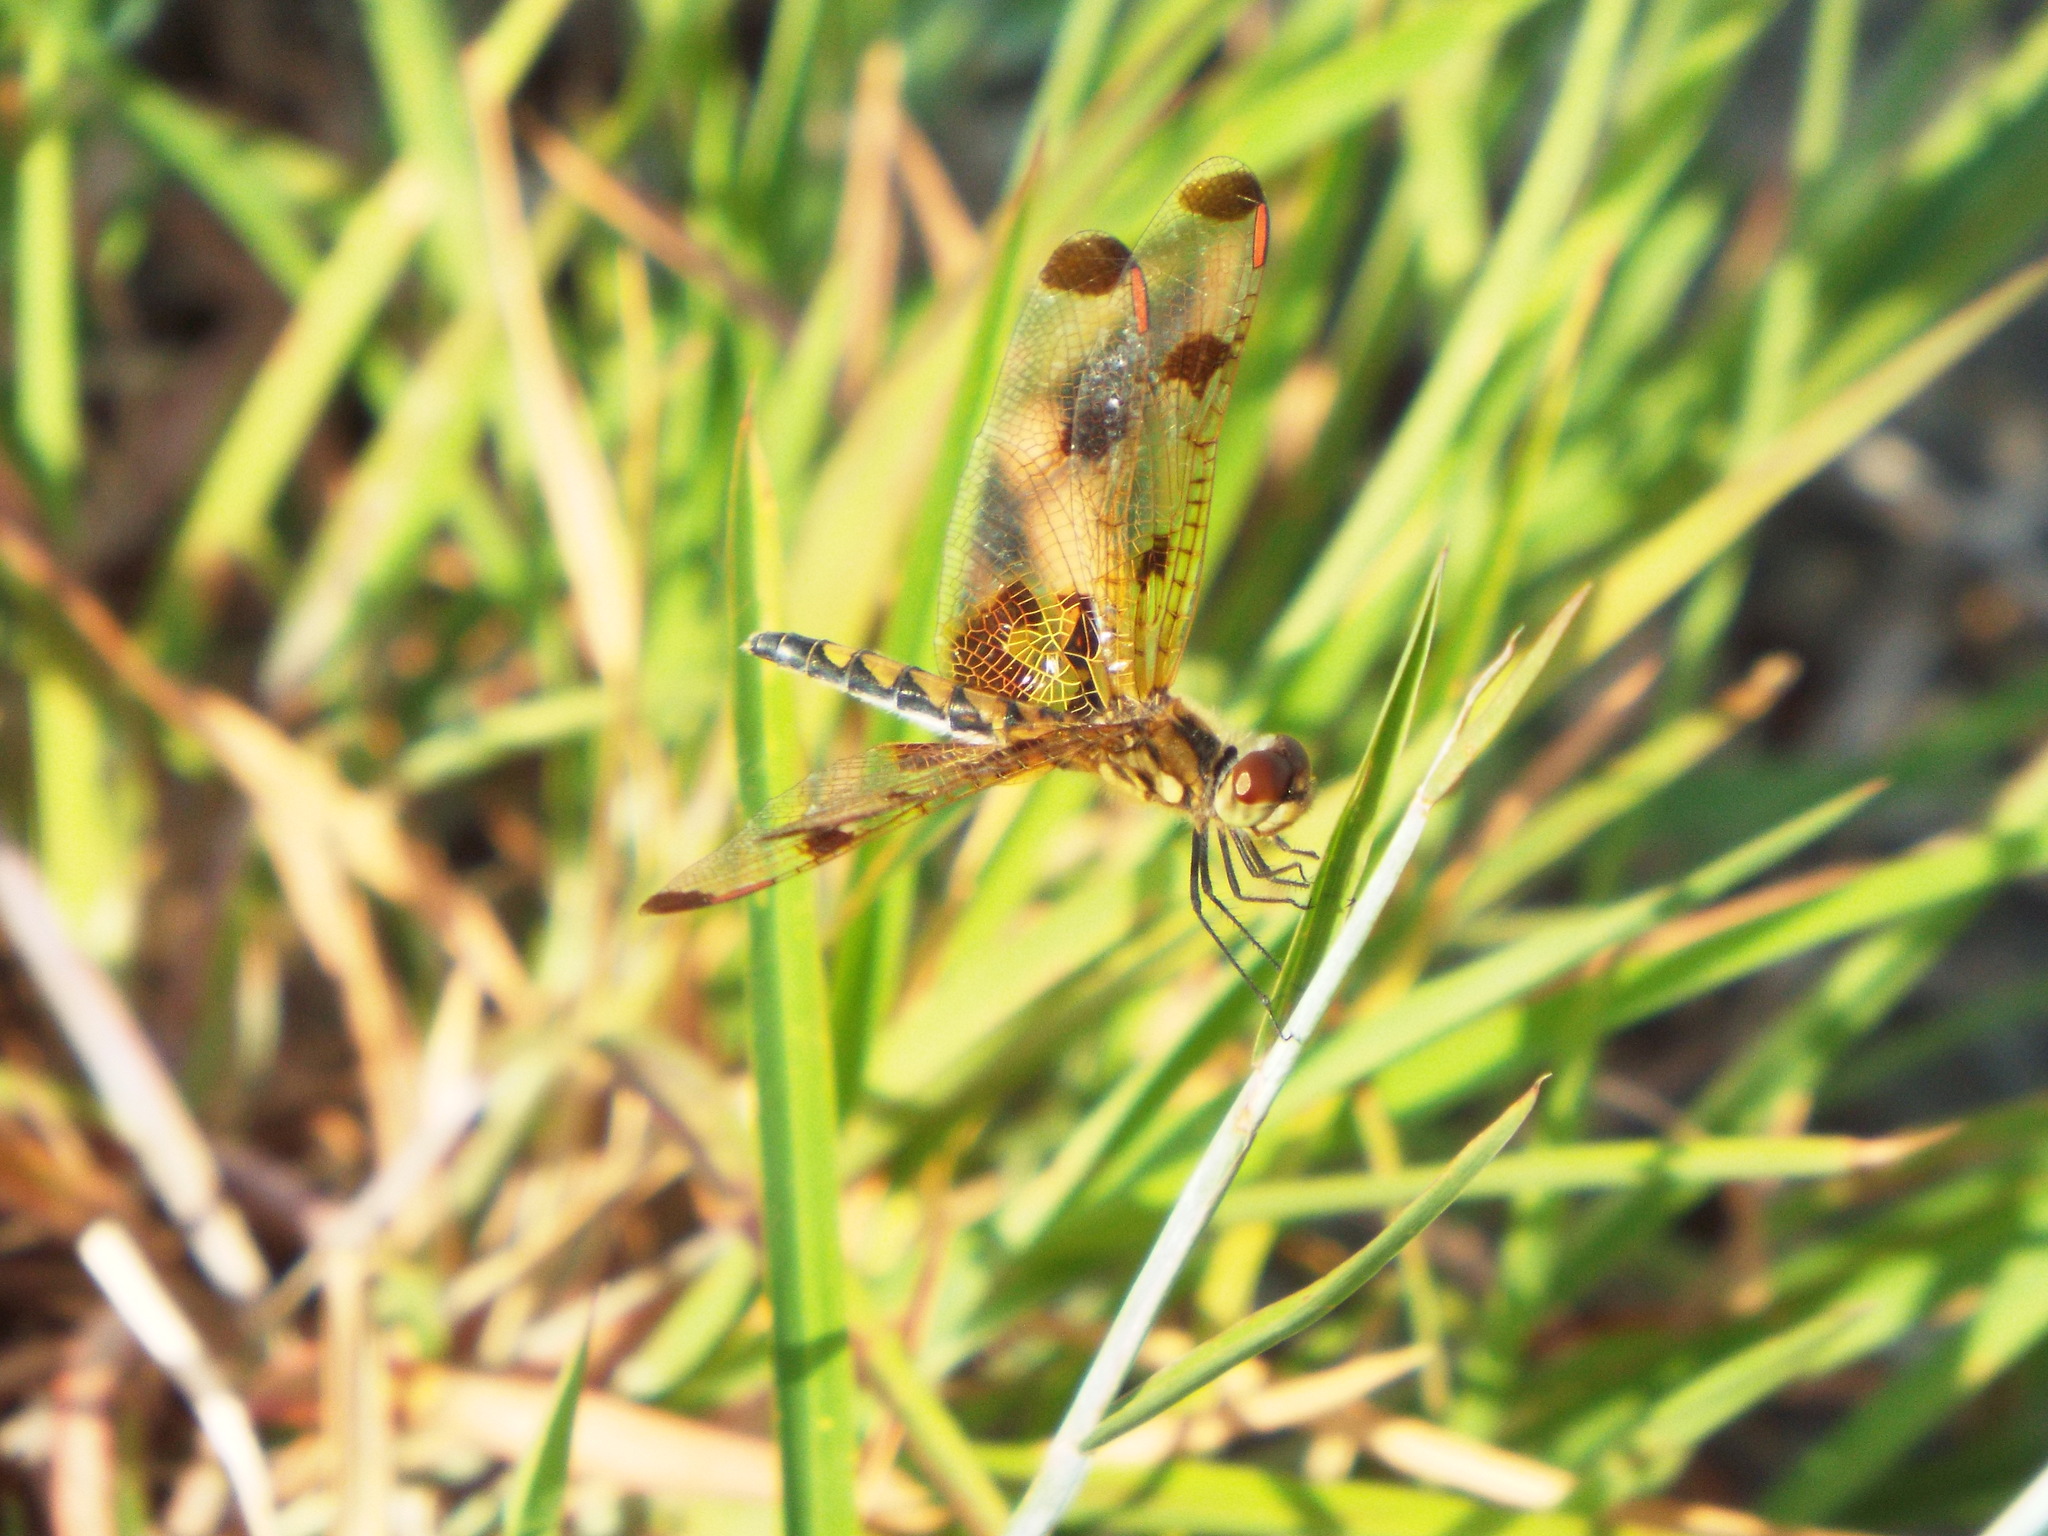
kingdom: Animalia
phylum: Arthropoda
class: Insecta
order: Odonata
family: Libellulidae
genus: Celithemis
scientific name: Celithemis eponina
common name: Halloween pennant
